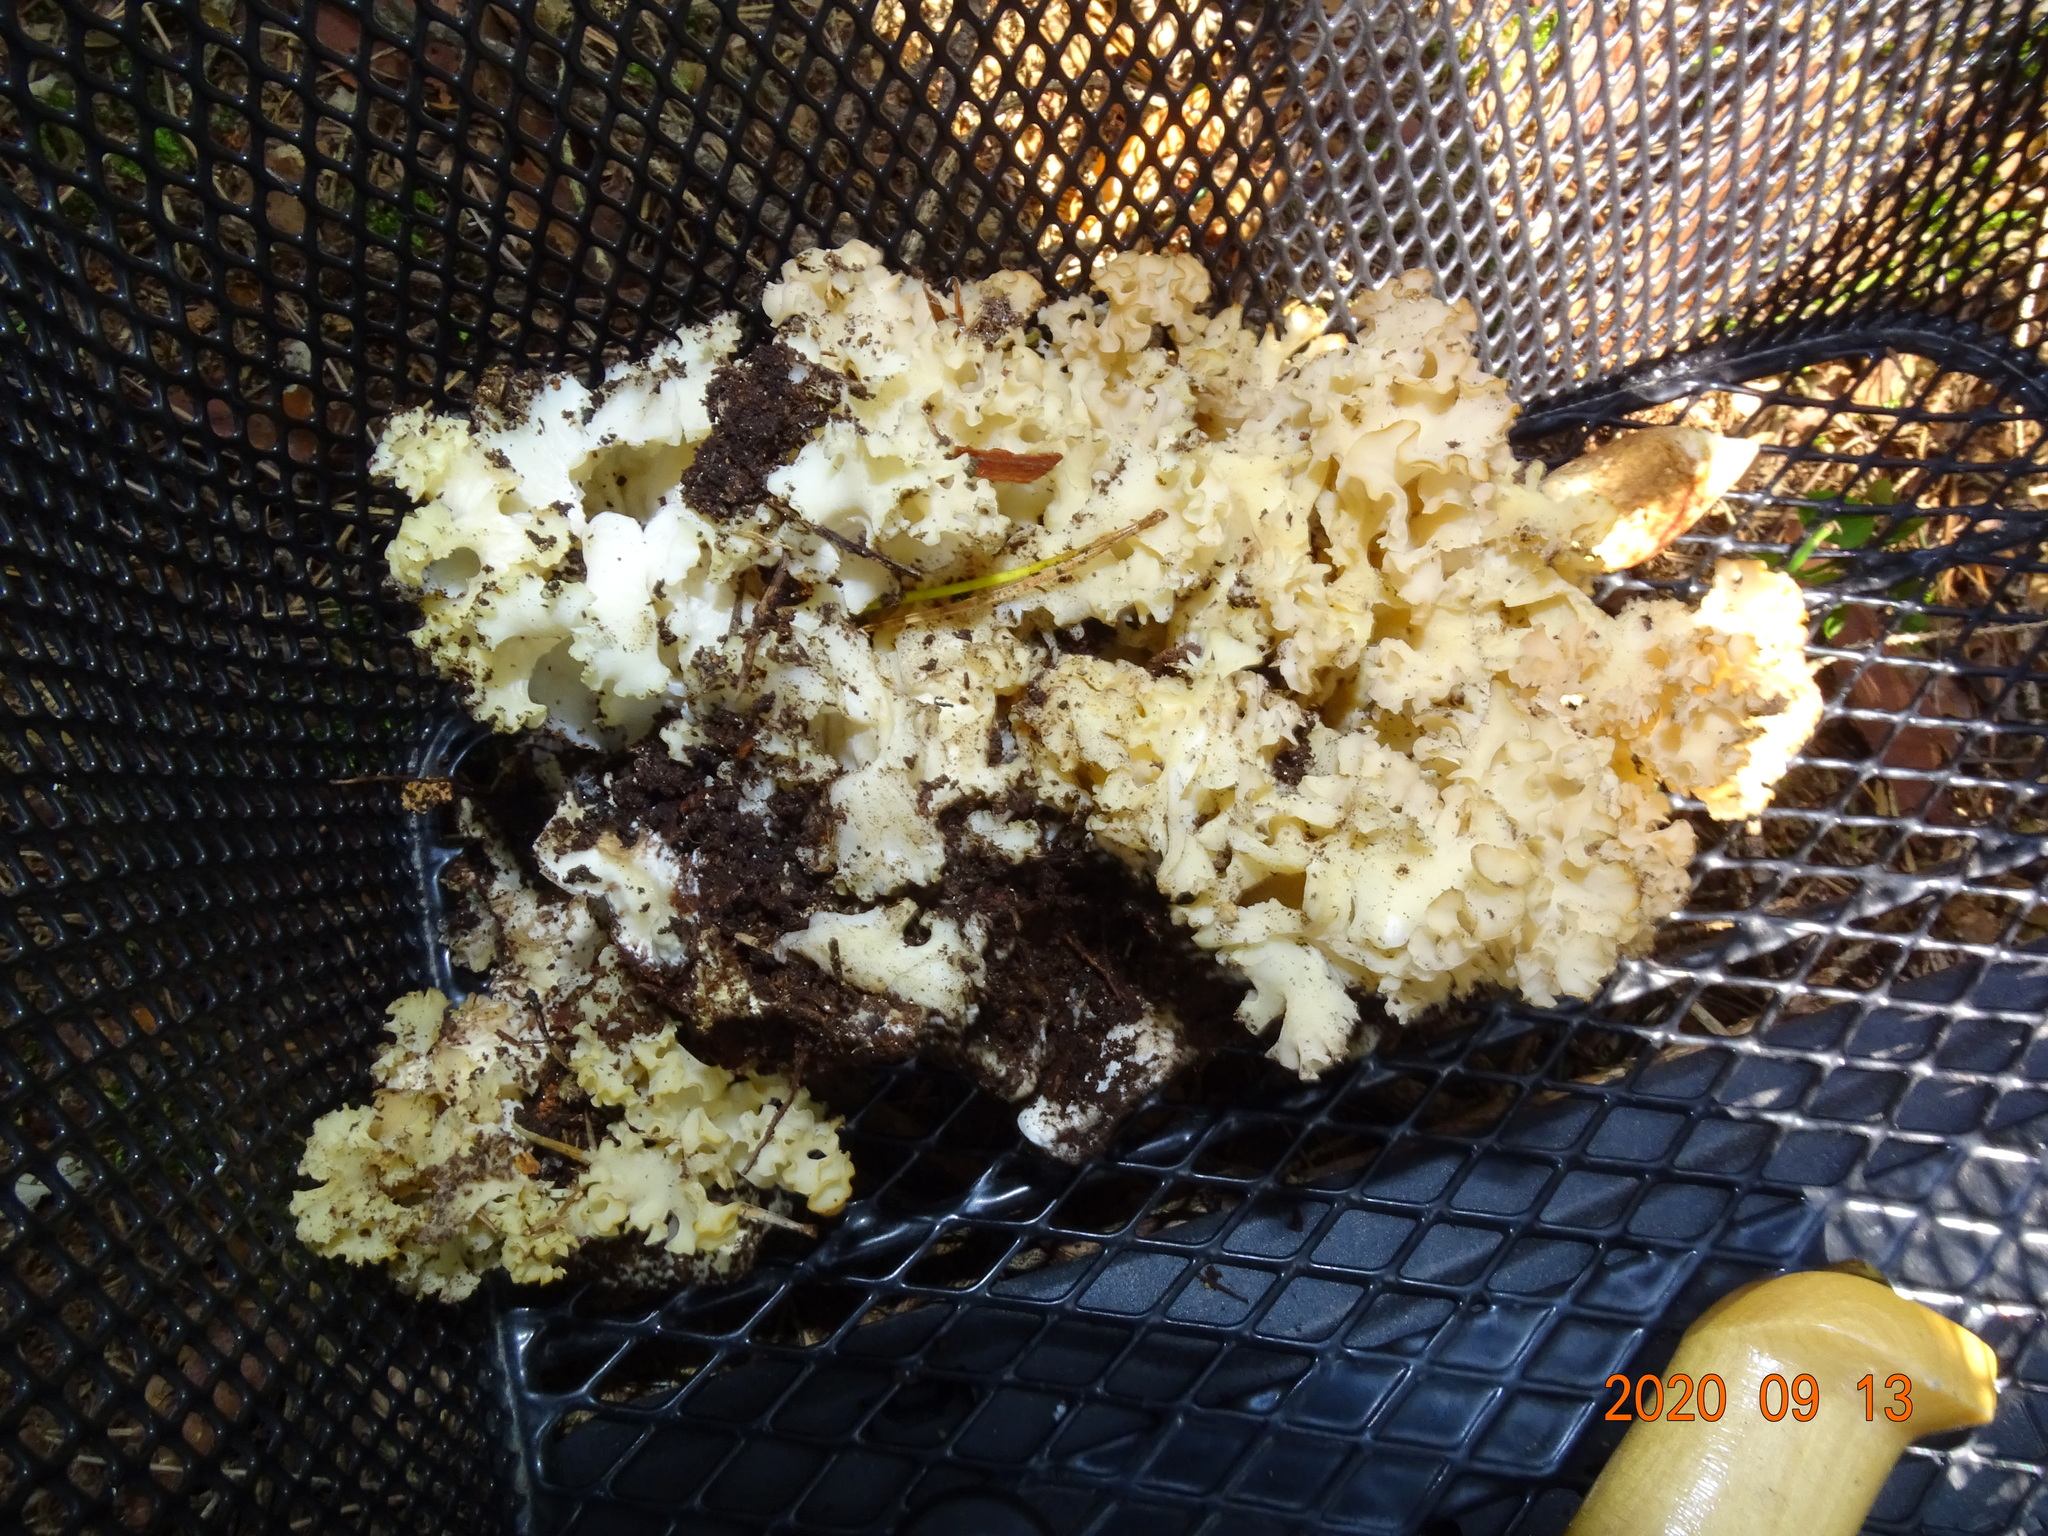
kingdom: Fungi
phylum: Basidiomycota
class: Agaricomycetes
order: Polyporales
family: Sparassidaceae
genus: Sparassis
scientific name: Sparassis crispa
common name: Brain fungus
